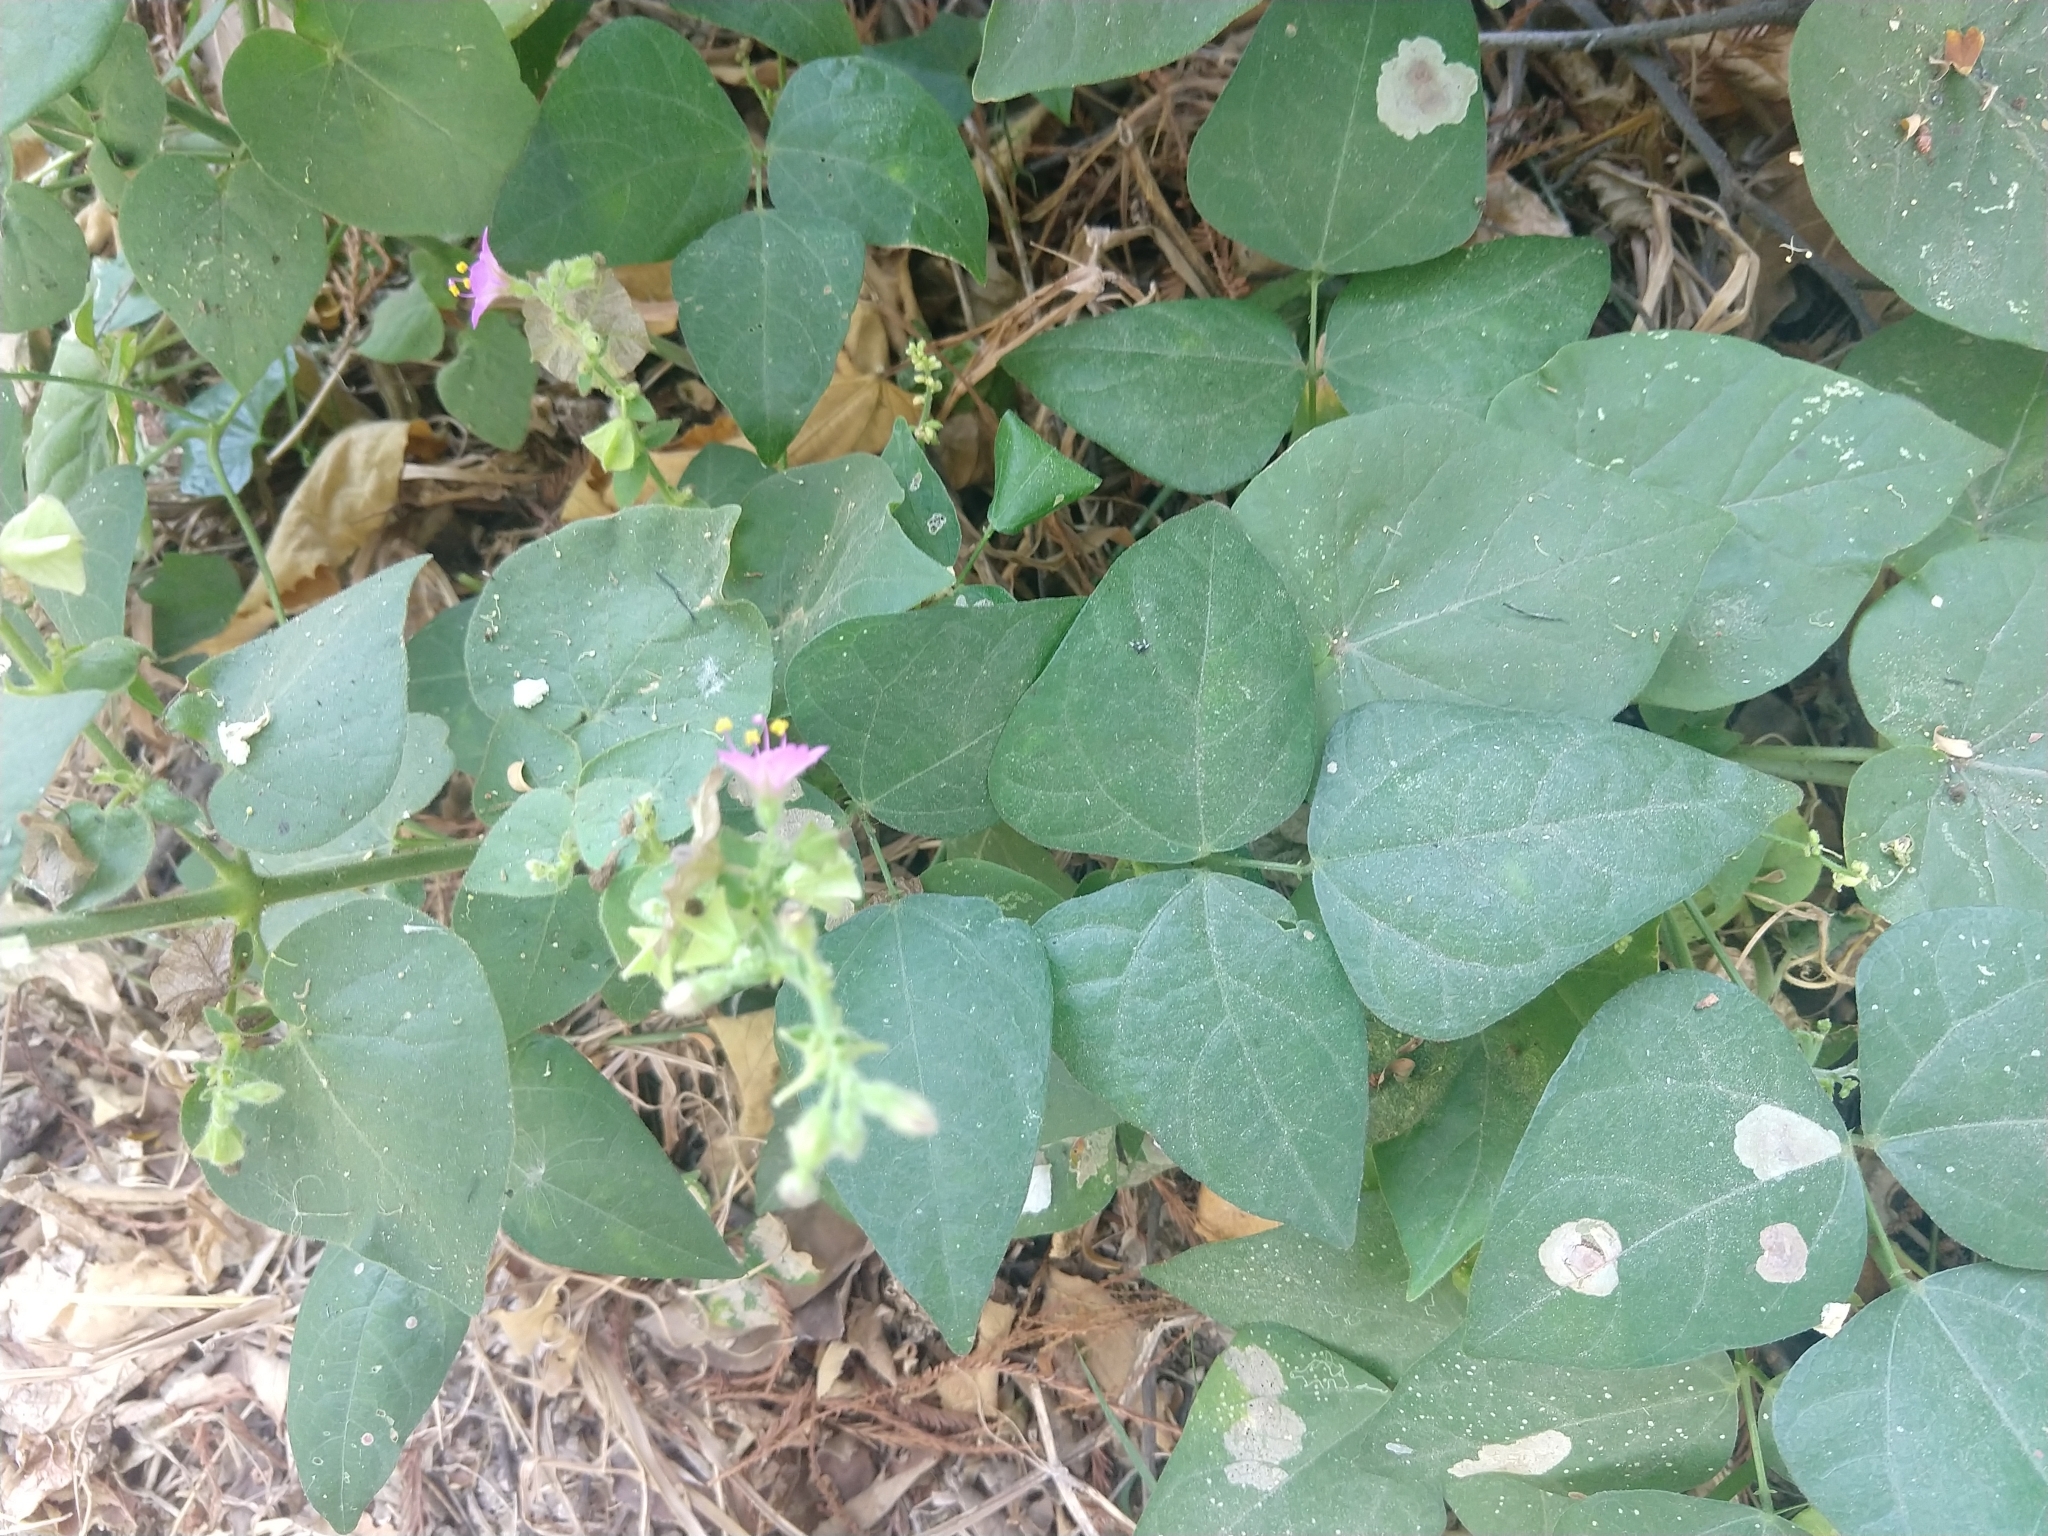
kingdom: Plantae
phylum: Tracheophyta
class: Magnoliopsida
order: Caryophyllales
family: Nyctaginaceae
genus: Mirabilis
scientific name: Mirabilis viscosa
